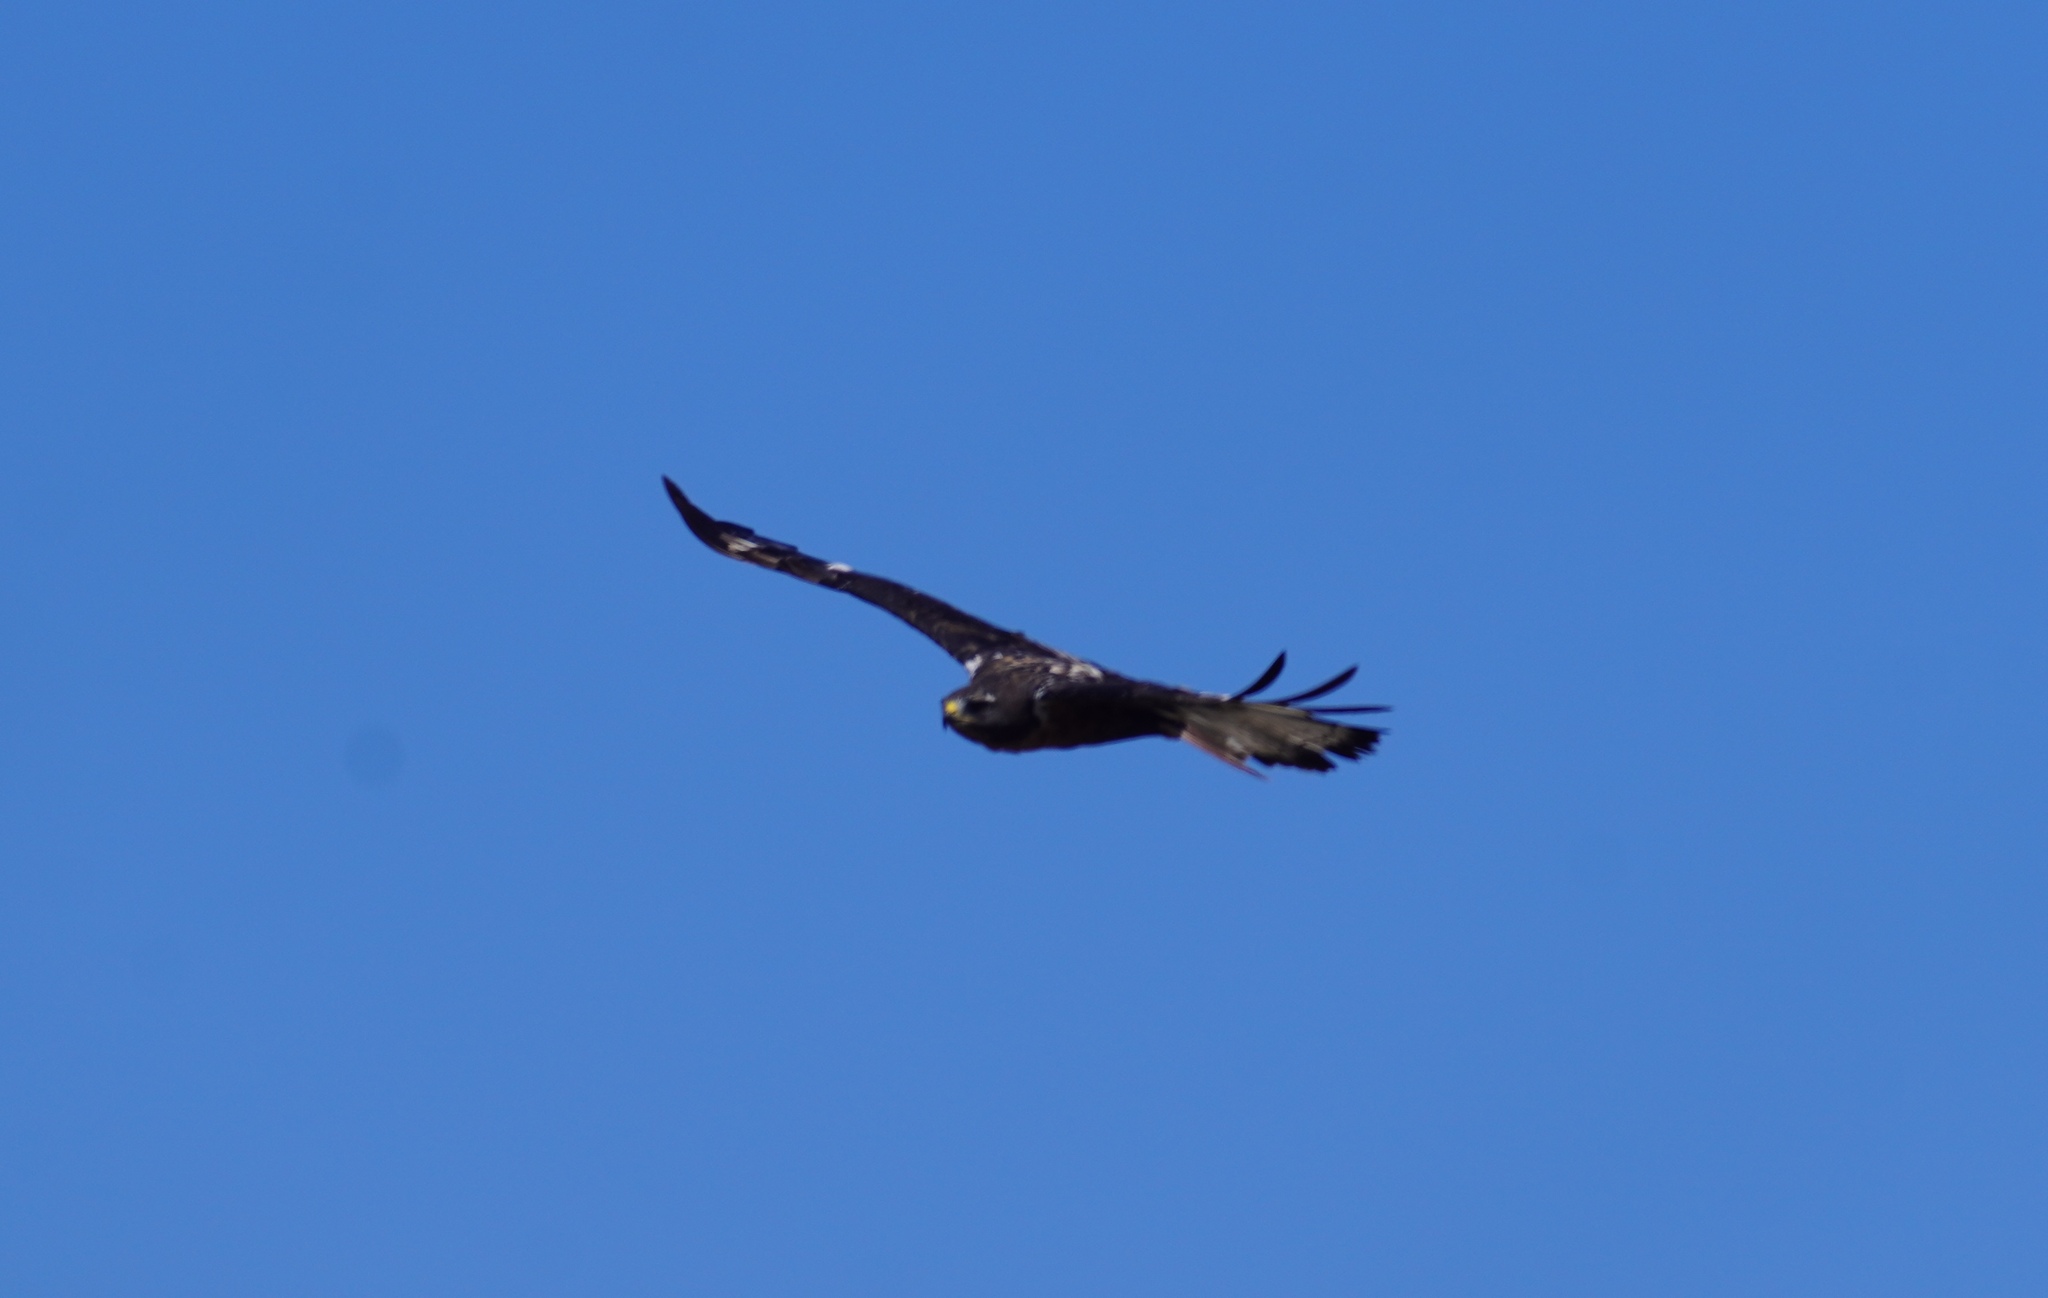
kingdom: Animalia
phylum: Chordata
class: Aves
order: Accipitriformes
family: Accipitridae
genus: Buteo
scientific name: Buteo rufofuscus
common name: Jackal buzzard
